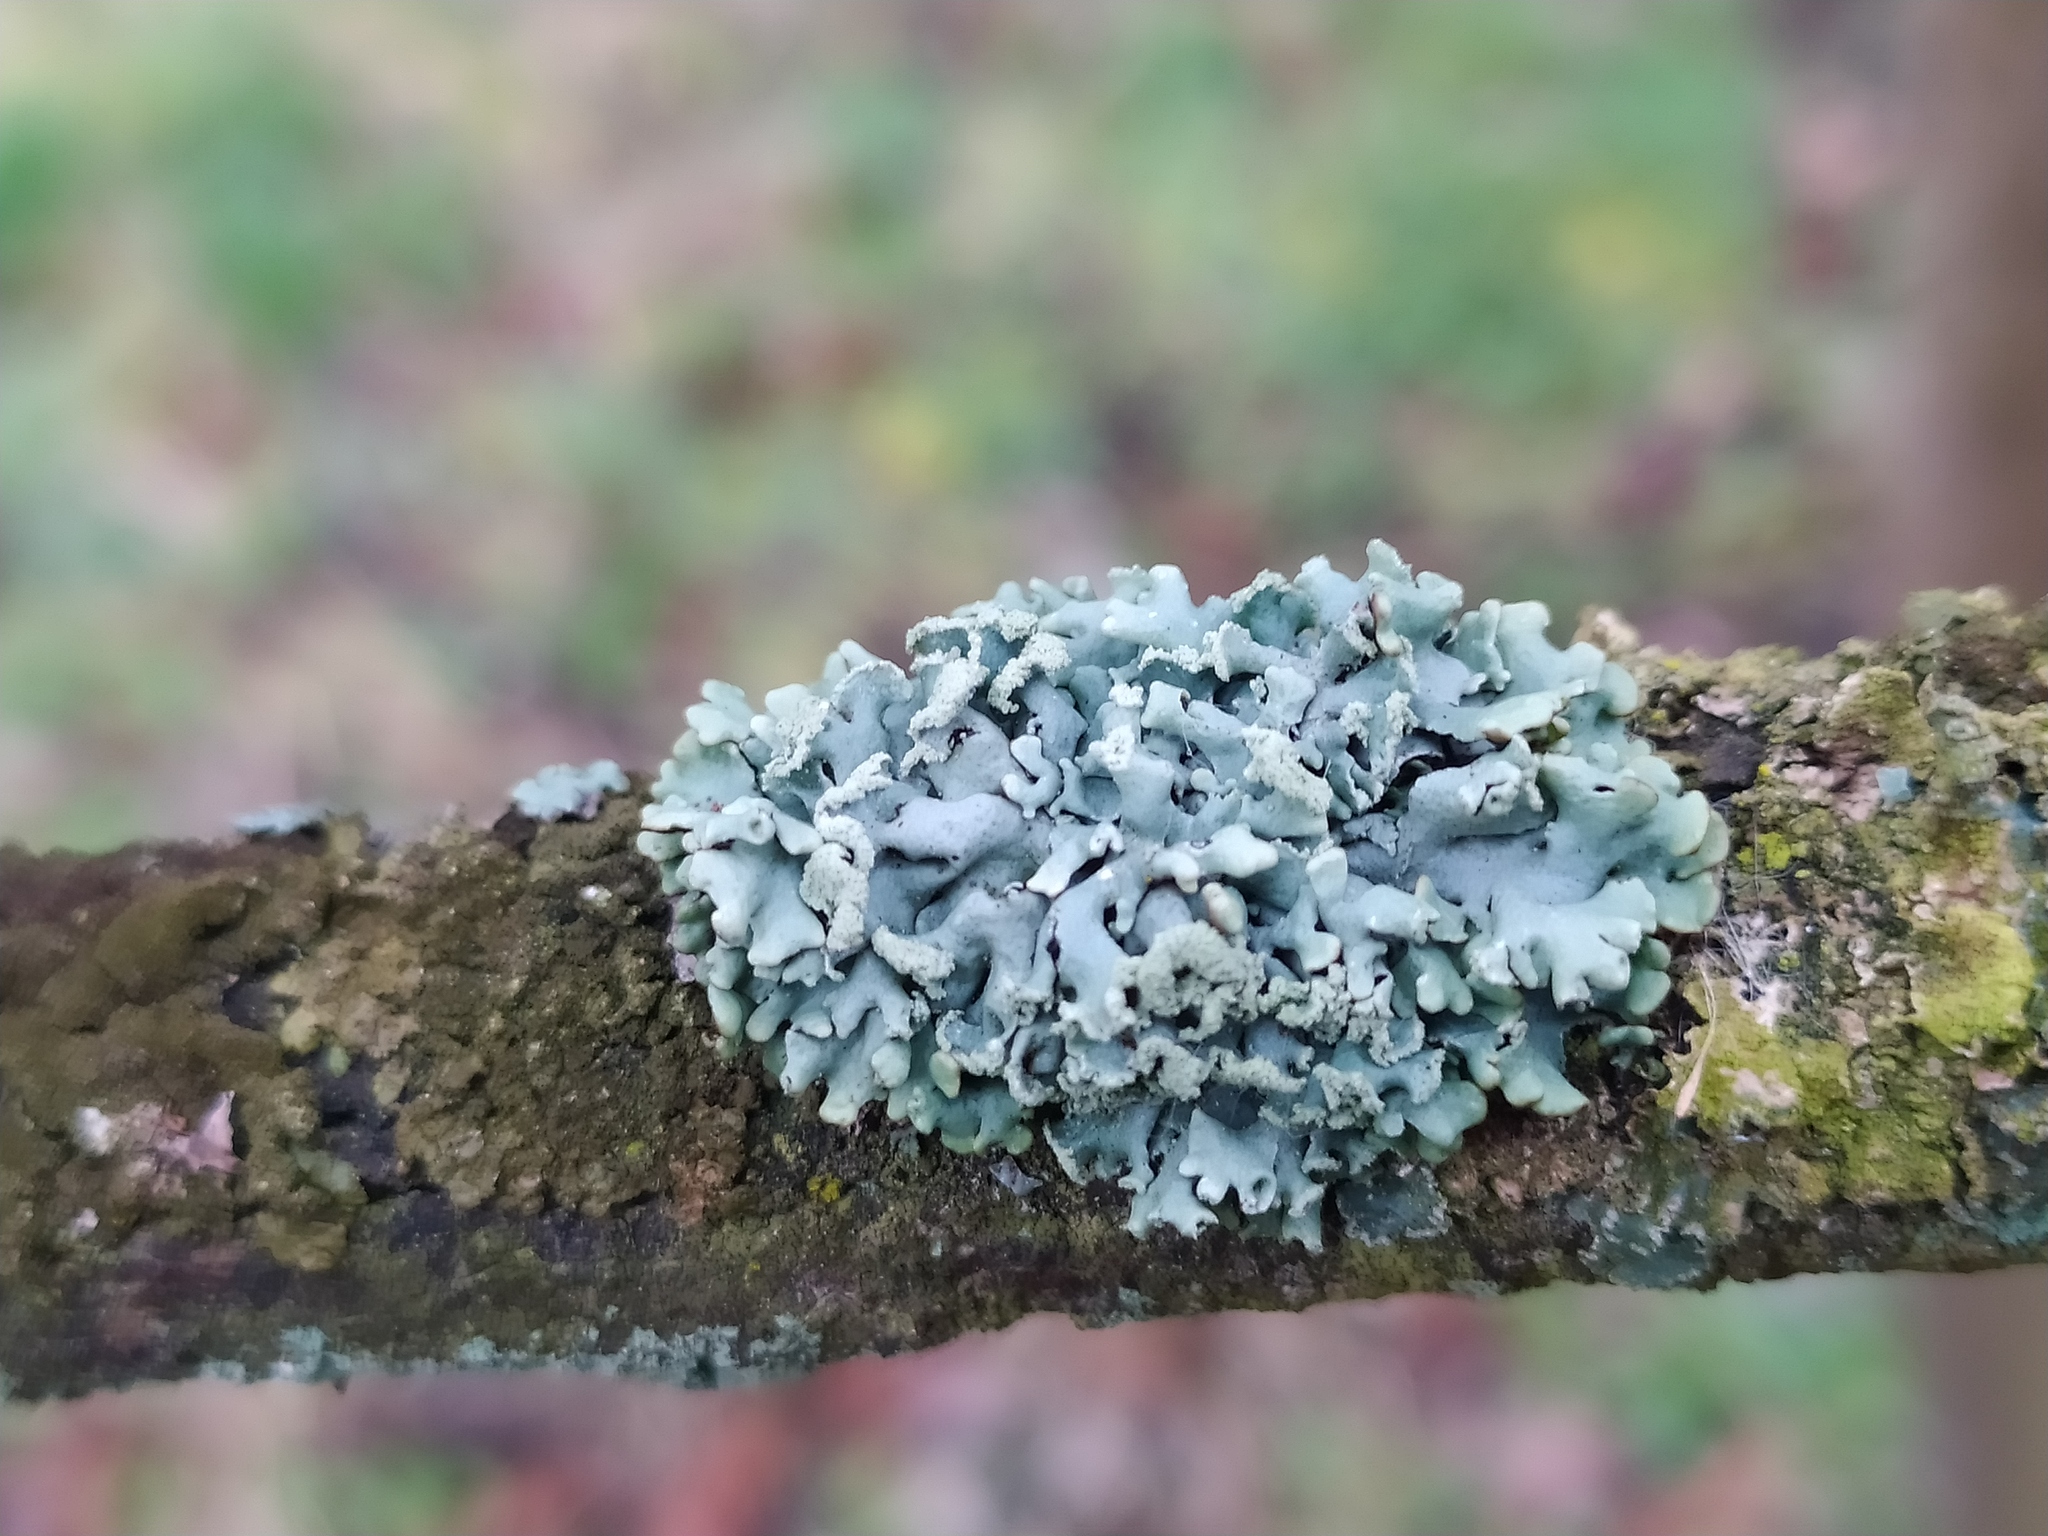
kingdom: Fungi
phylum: Ascomycota
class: Lecanoromycetes
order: Lecanorales
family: Parmeliaceae
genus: Hypogymnia
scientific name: Hypogymnia physodes
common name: Dark crottle
